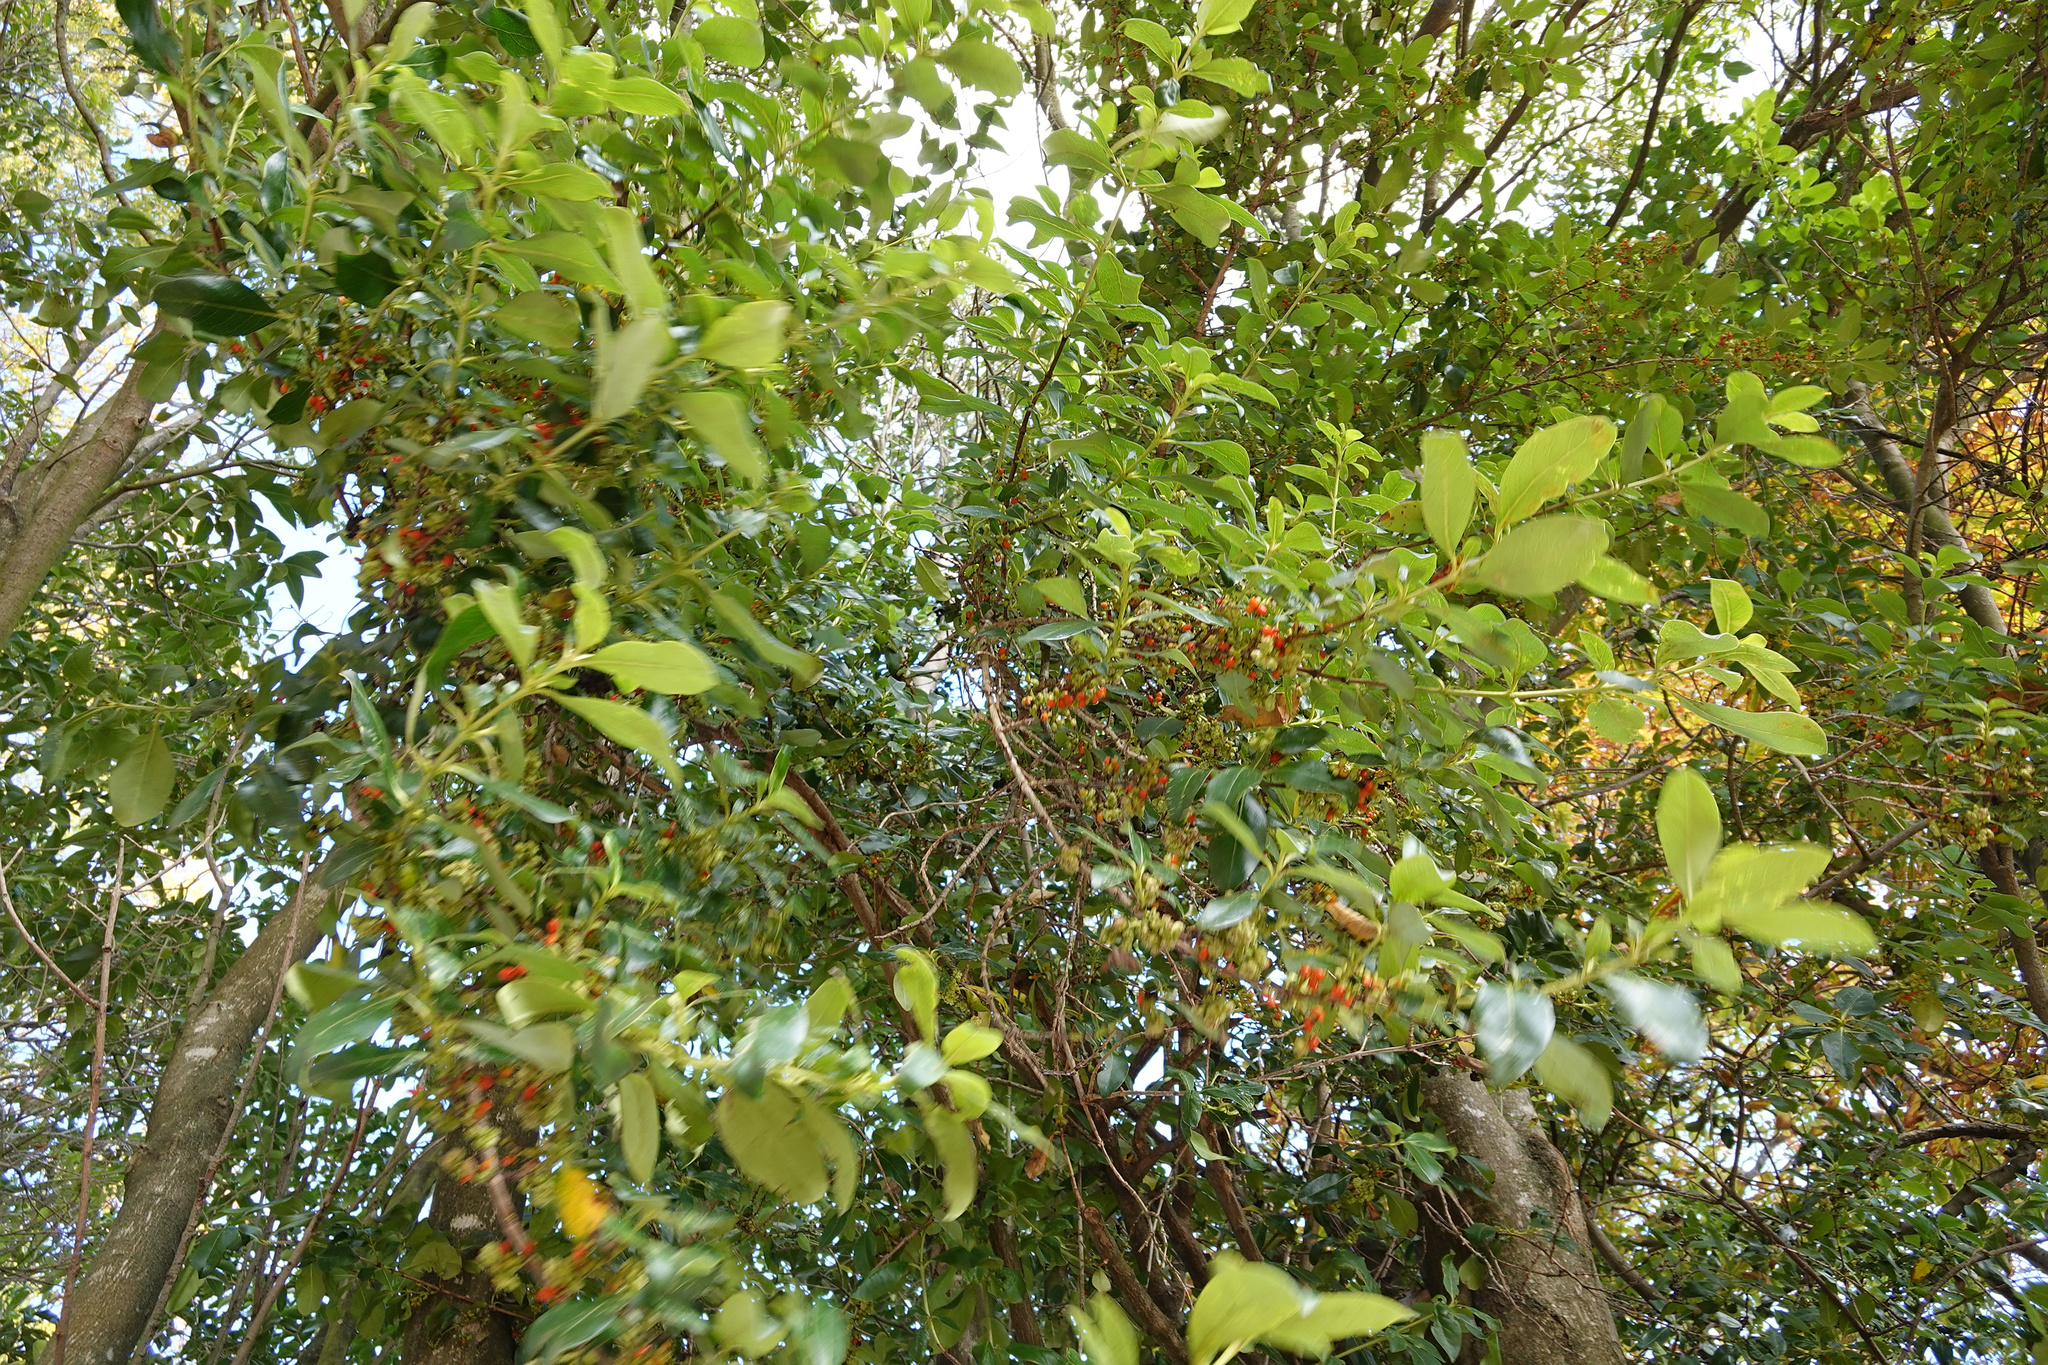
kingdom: Plantae
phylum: Tracheophyta
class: Magnoliopsida
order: Gentianales
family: Rubiaceae
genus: Coprosma
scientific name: Coprosma robusta
